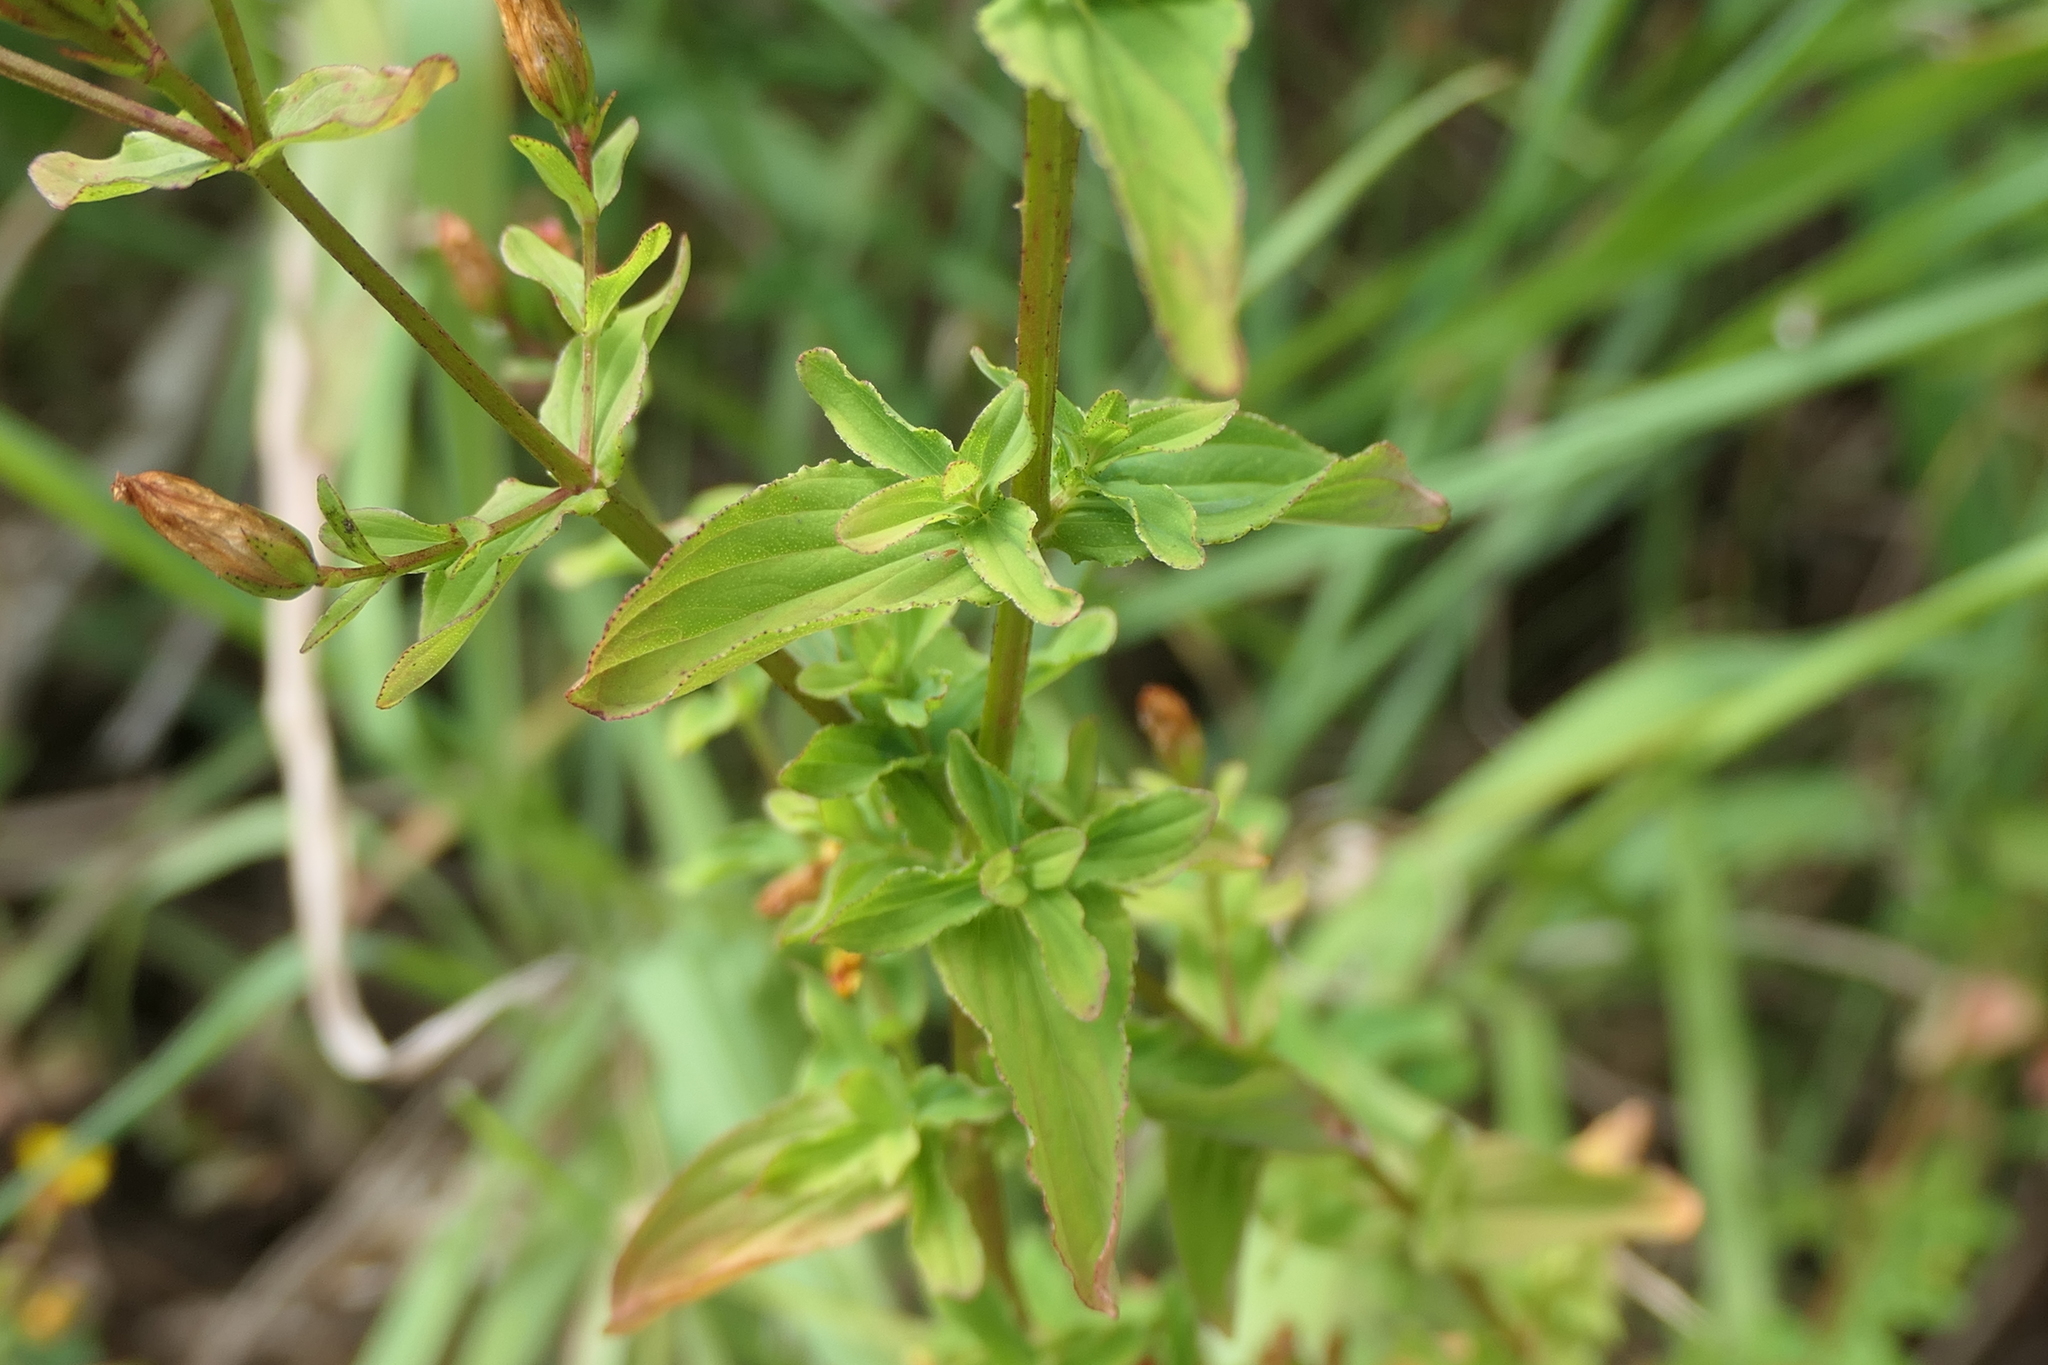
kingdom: Plantae
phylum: Tracheophyta
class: Magnoliopsida
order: Malpighiales
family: Hypericaceae
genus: Hypericum
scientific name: Hypericum undulatum
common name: Wavy st. john's-wort
